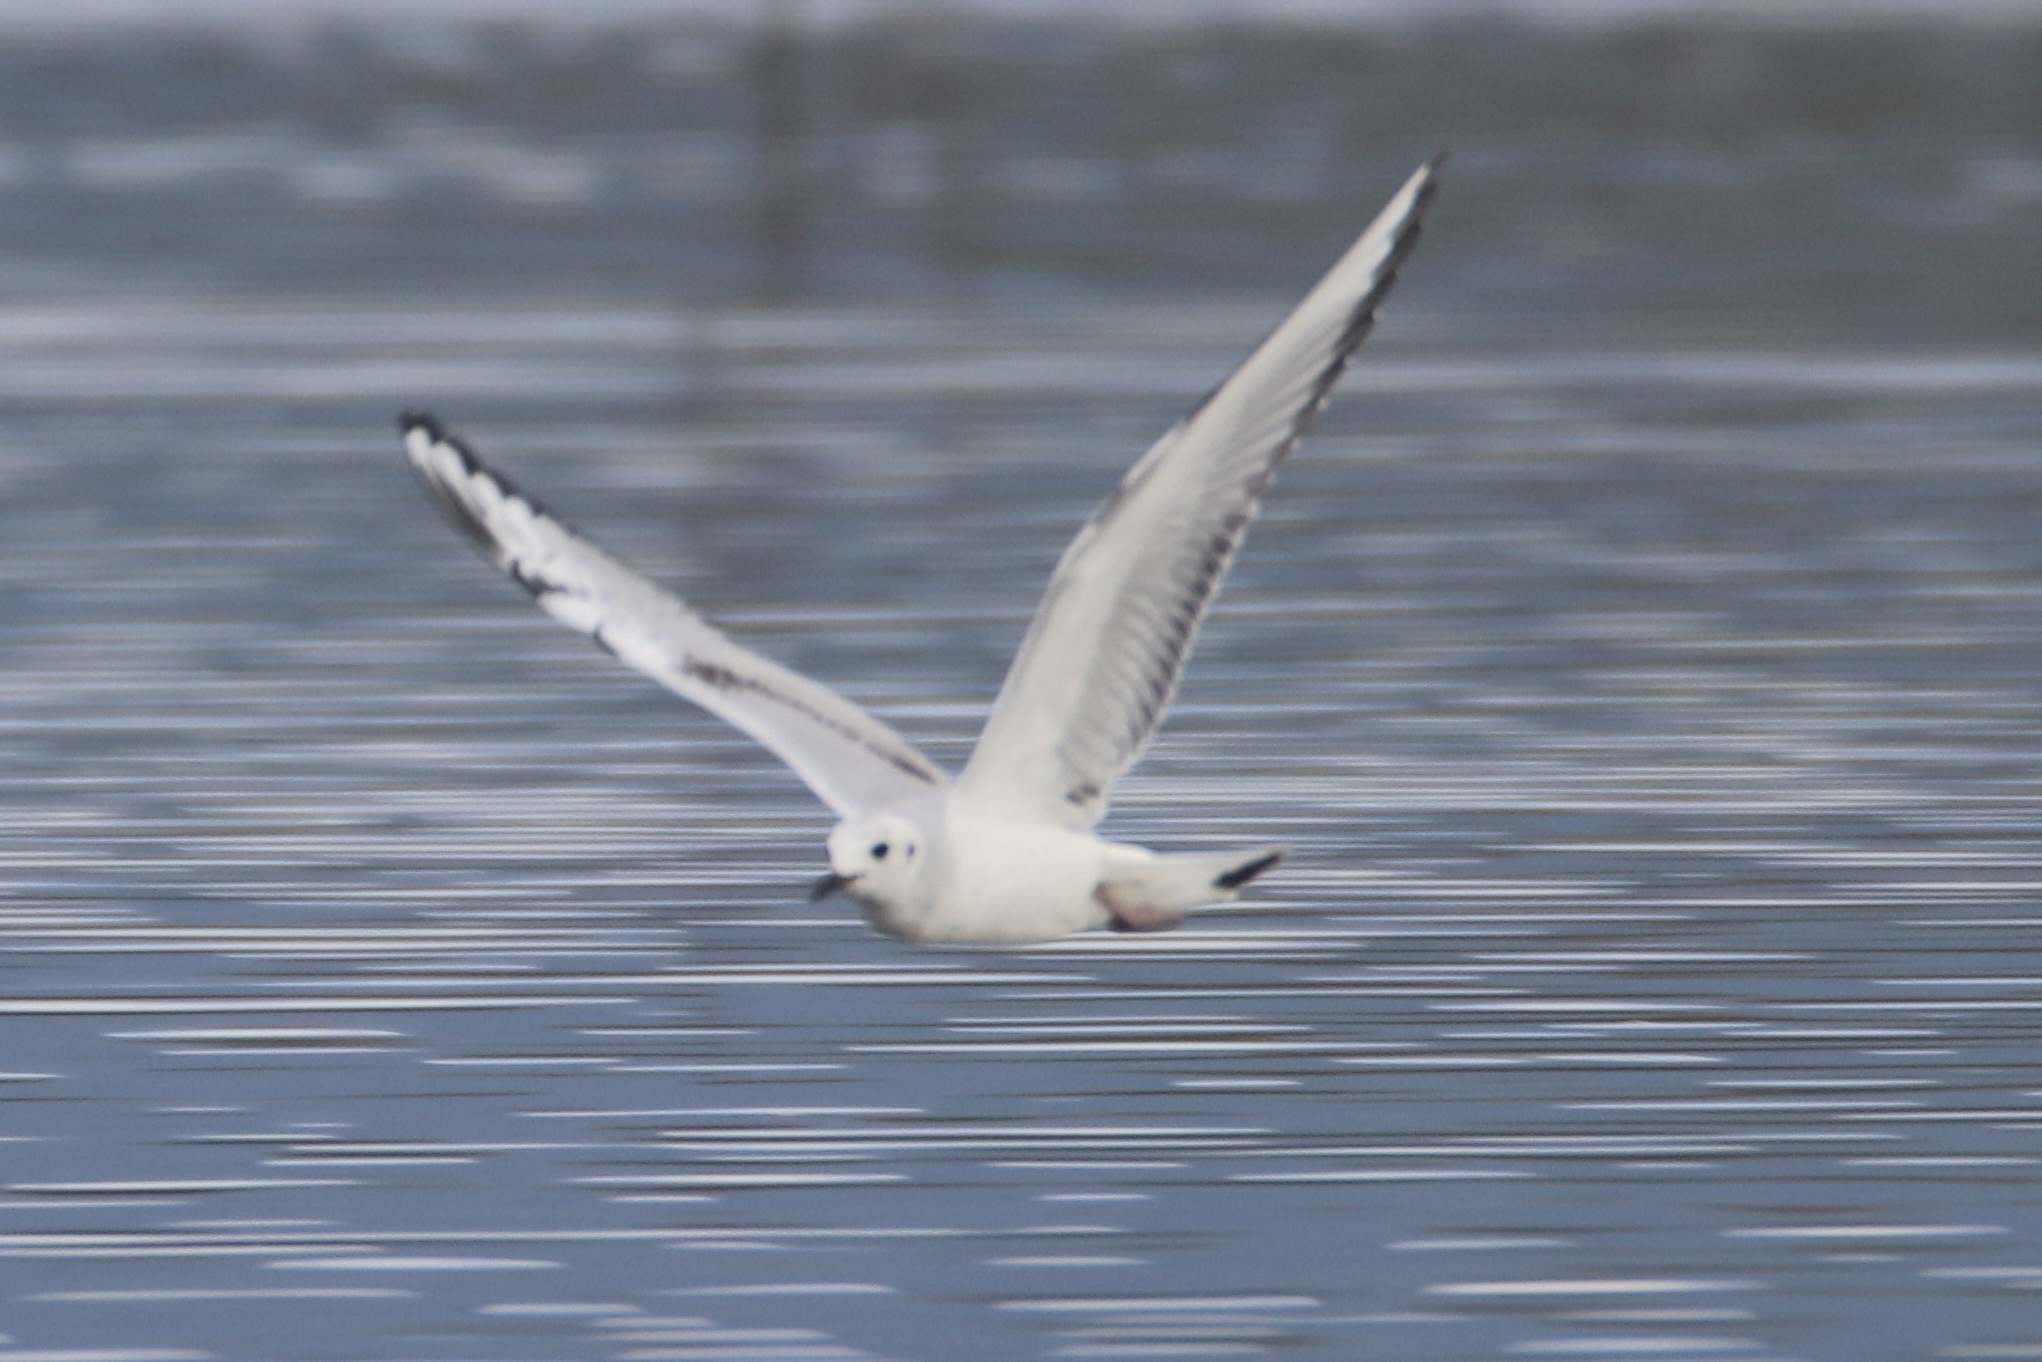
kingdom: Animalia
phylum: Chordata
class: Aves
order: Charadriiformes
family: Laridae
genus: Chroicocephalus
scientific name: Chroicocephalus philadelphia
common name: Bonaparte's gull
